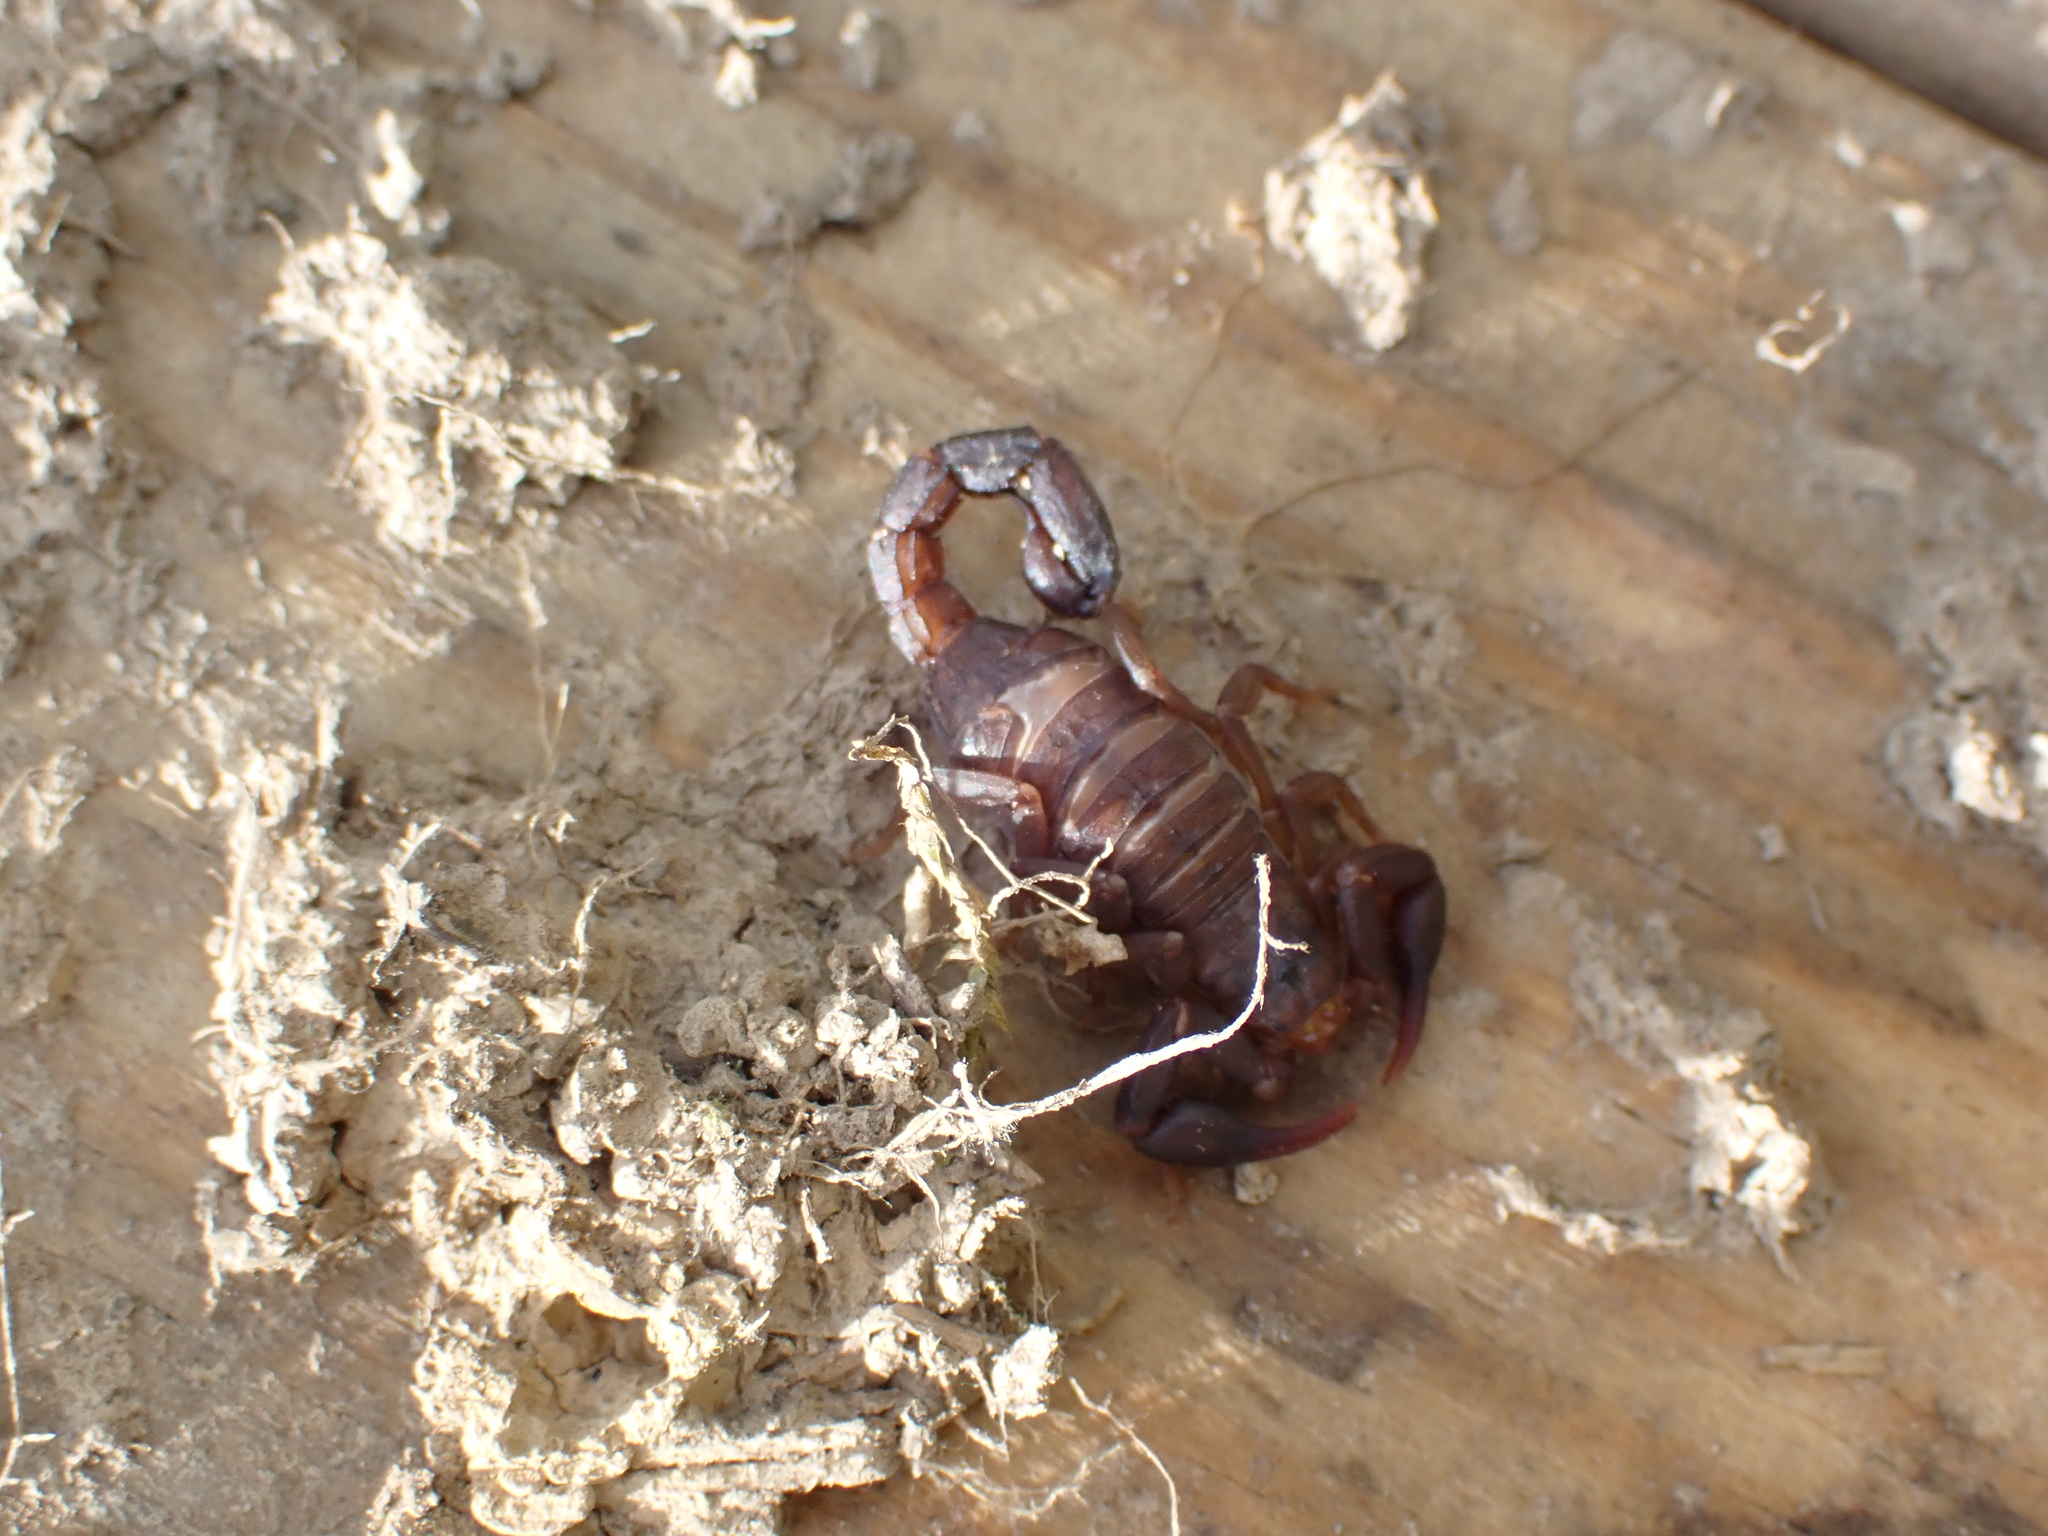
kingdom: Animalia
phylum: Arthropoda
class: Arachnida
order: Scorpiones
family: Vaejovidae
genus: Vaejovis
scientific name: Vaejovis carolinianus
